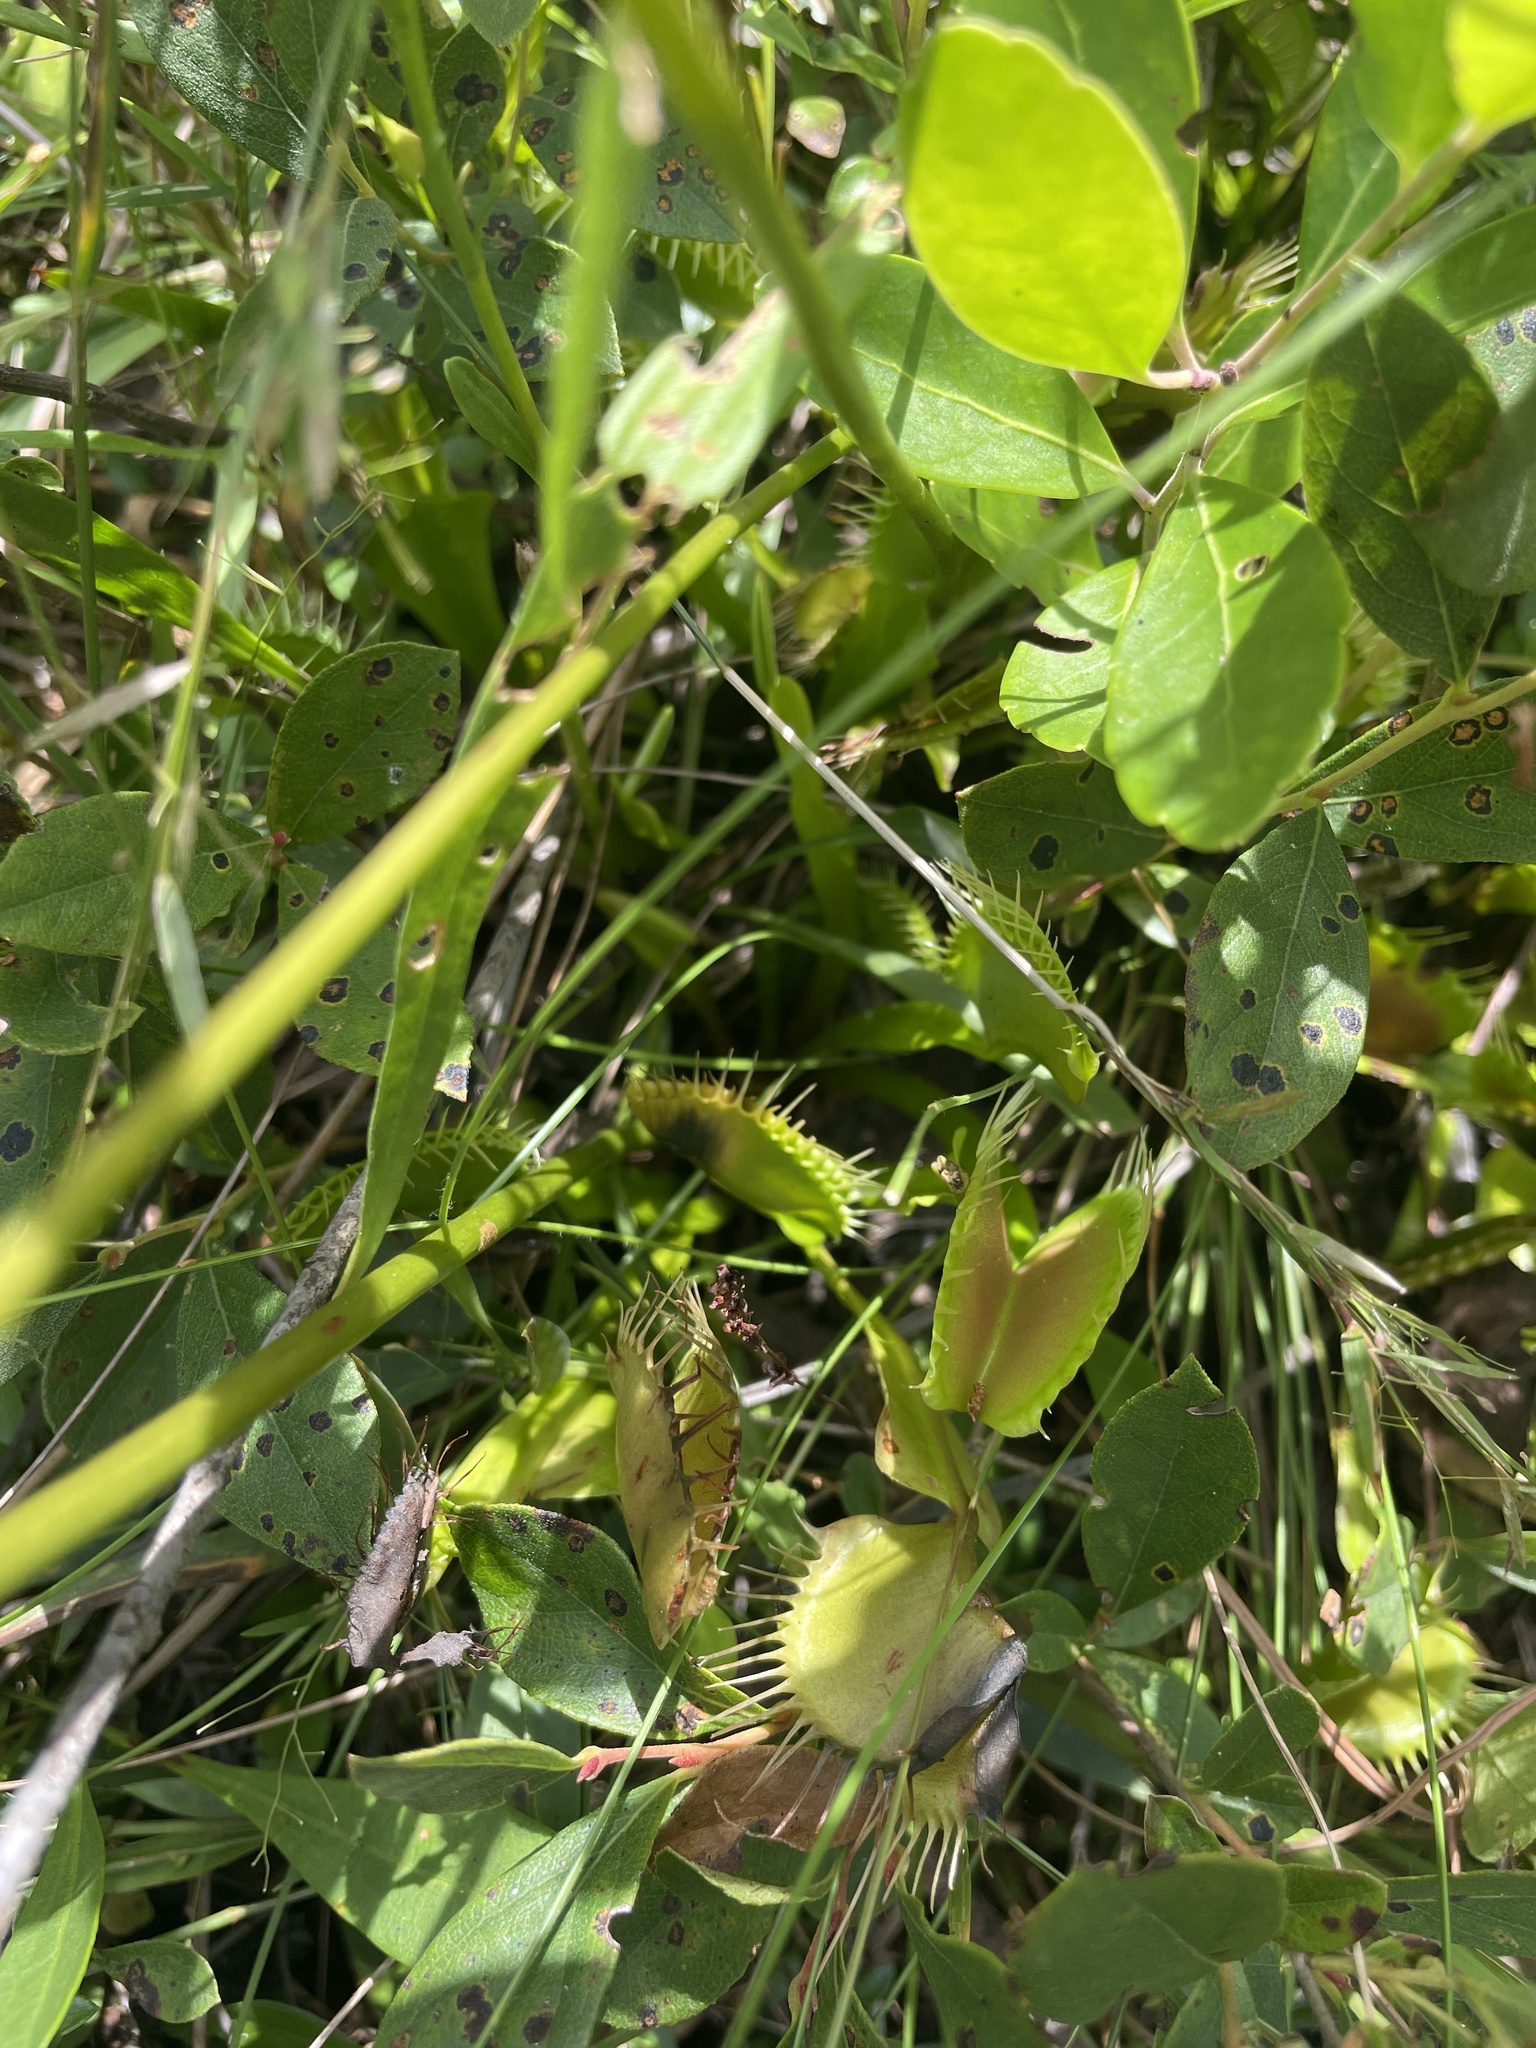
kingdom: Plantae
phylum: Tracheophyta
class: Magnoliopsida
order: Caryophyllales
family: Droseraceae
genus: Dionaea
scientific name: Dionaea muscipula
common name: Venus flytrap
